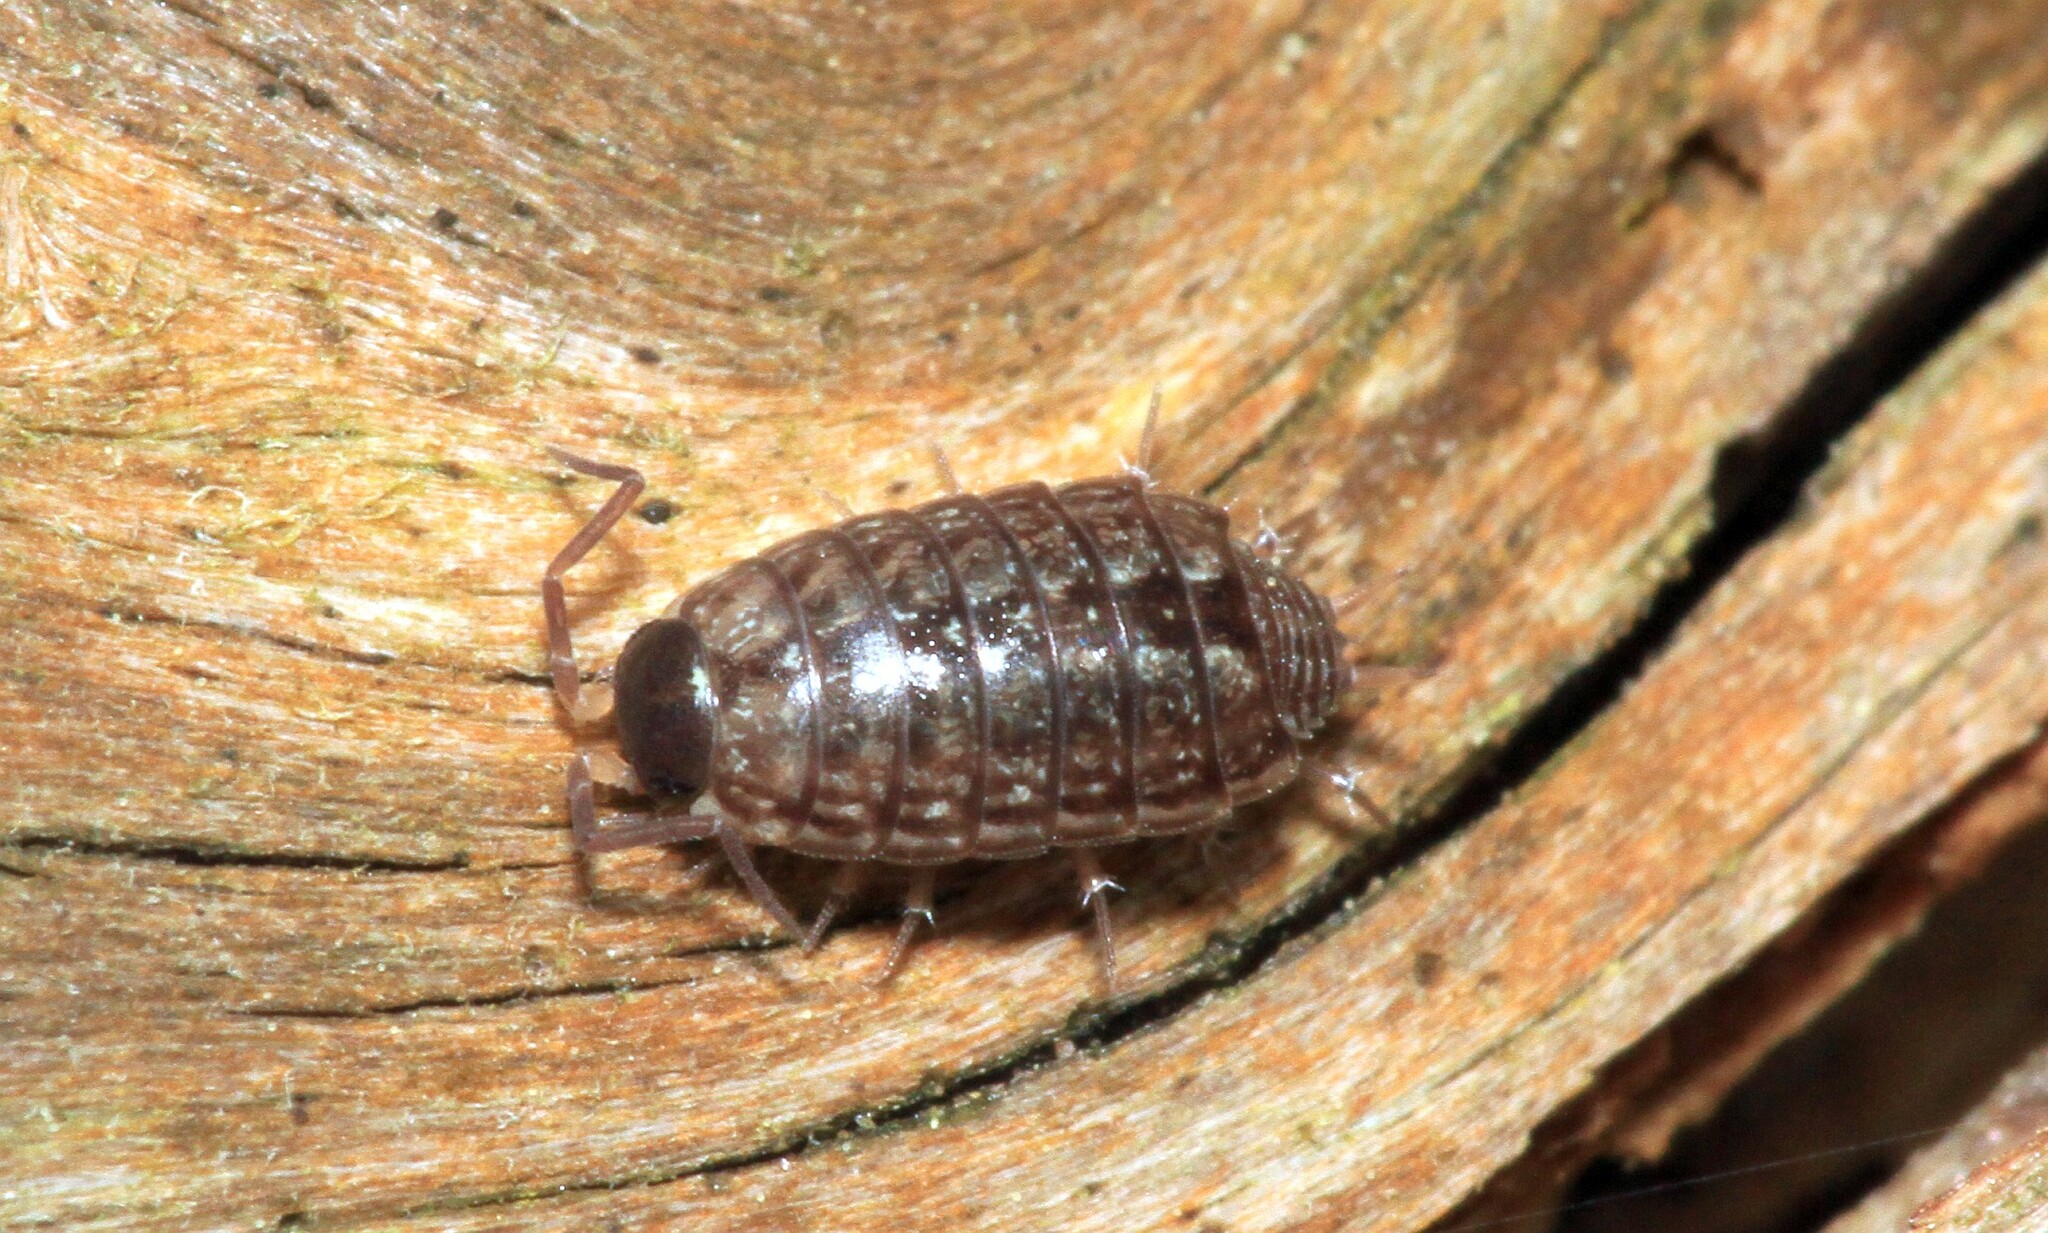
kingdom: Animalia
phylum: Arthropoda
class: Malacostraca
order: Isopoda
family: Philosciidae
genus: Philoscia
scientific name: Philoscia muscorum
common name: Common striped woodlouse
